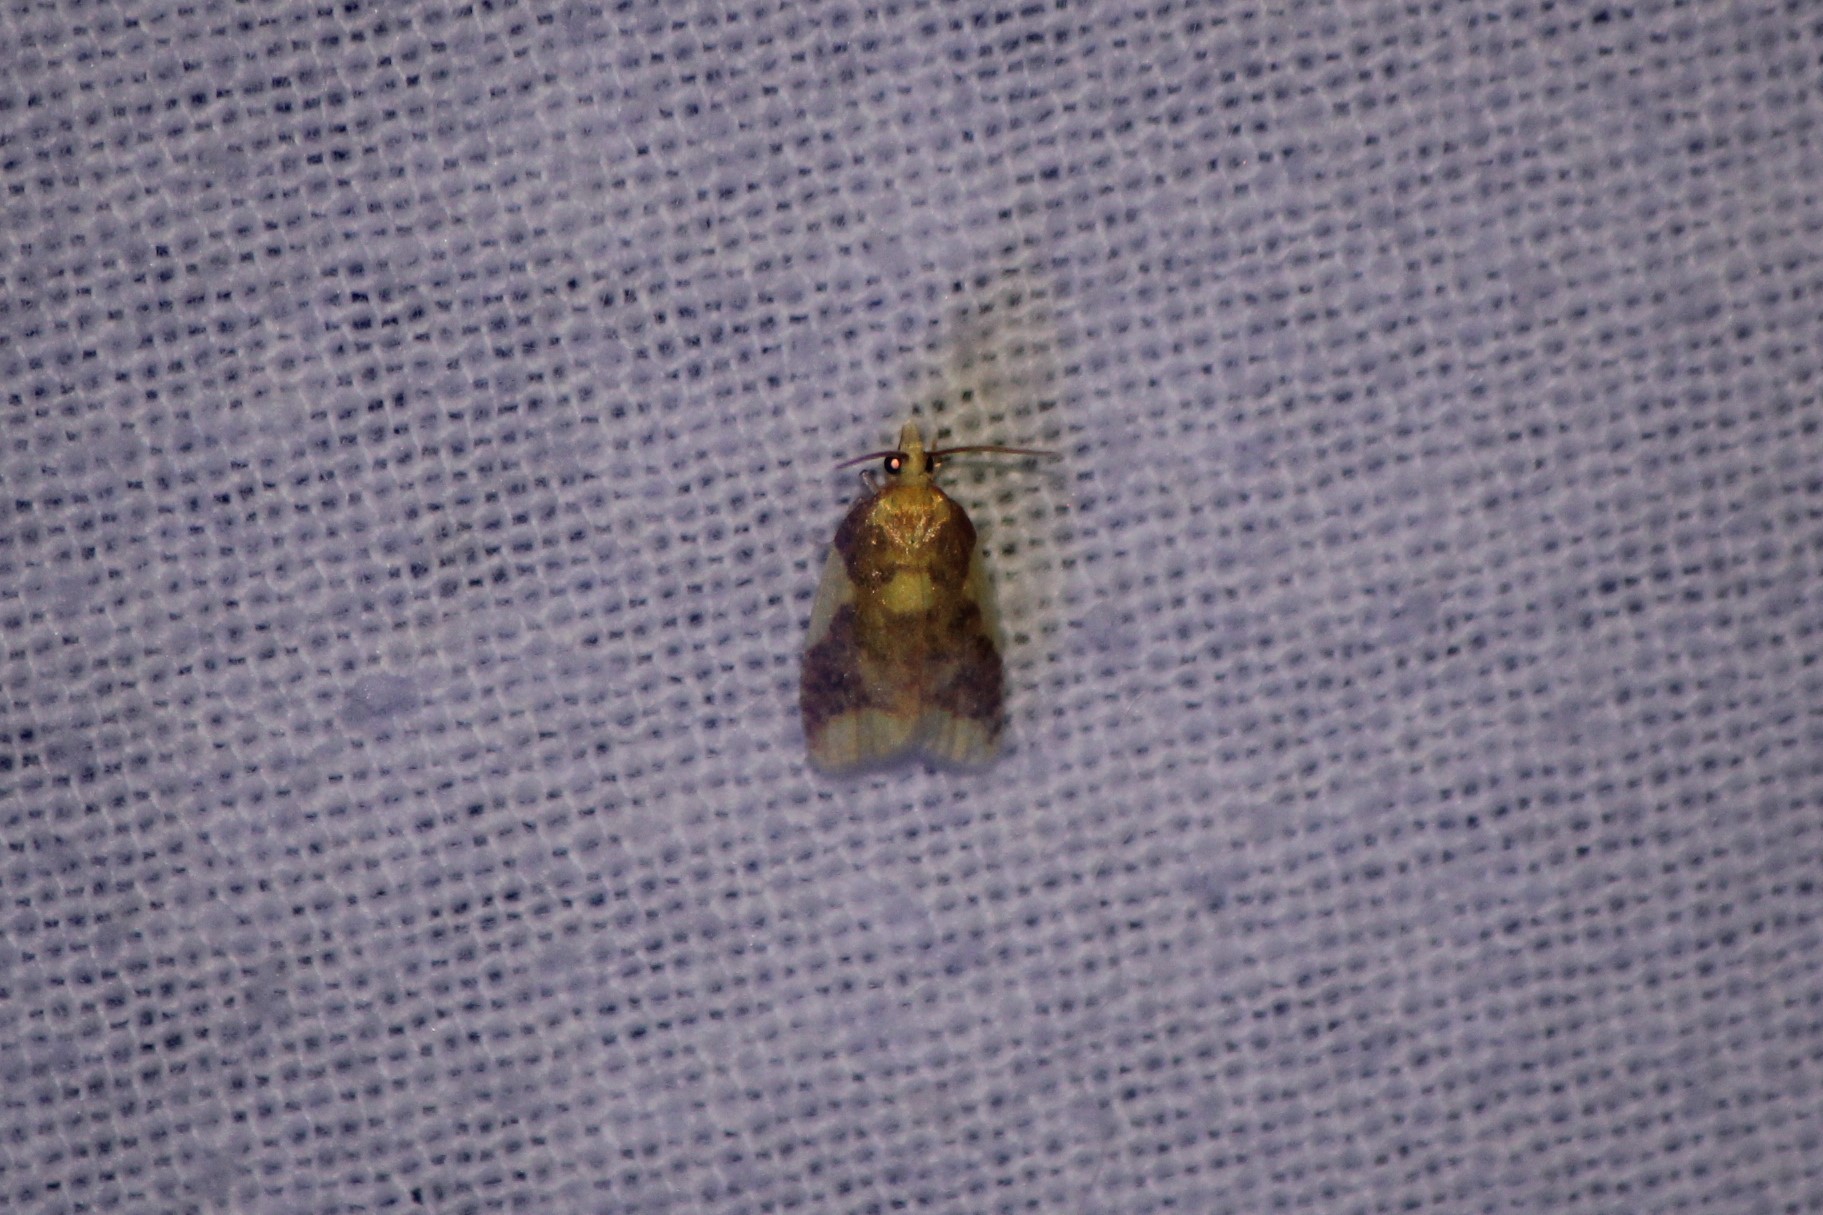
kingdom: Animalia
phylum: Arthropoda
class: Insecta
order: Lepidoptera
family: Tortricidae
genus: Cenopis
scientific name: Cenopis niveana
